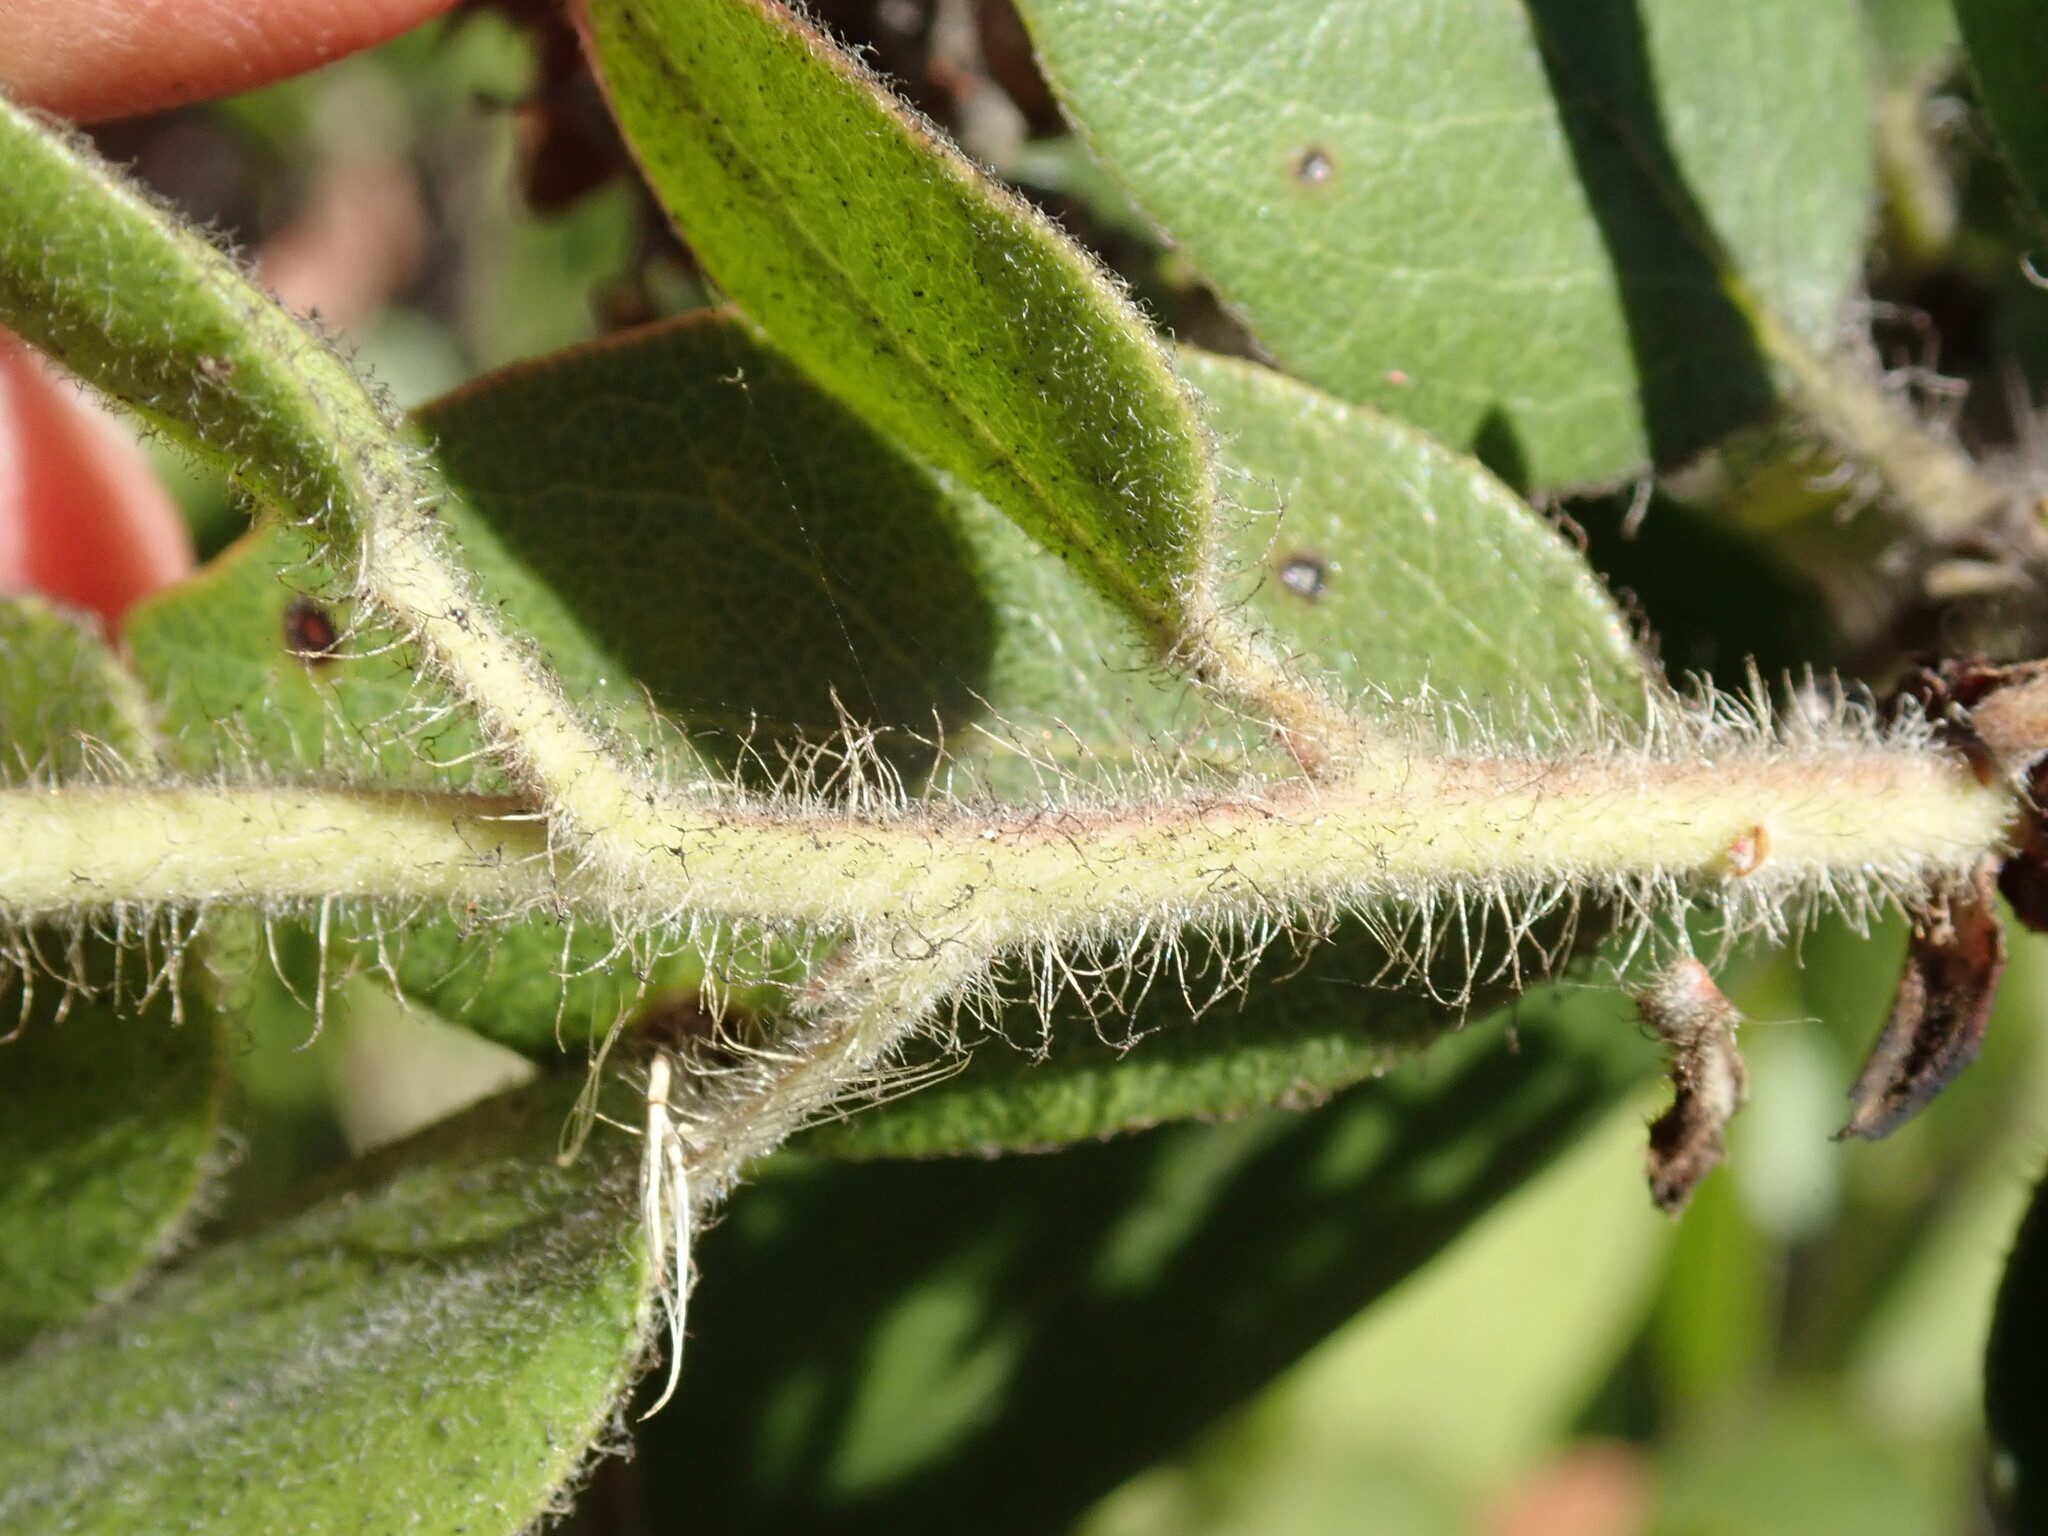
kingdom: Plantae
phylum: Tracheophyta
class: Magnoliopsida
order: Ericales
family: Ericaceae
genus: Arctostaphylos
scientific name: Arctostaphylos crustacea
